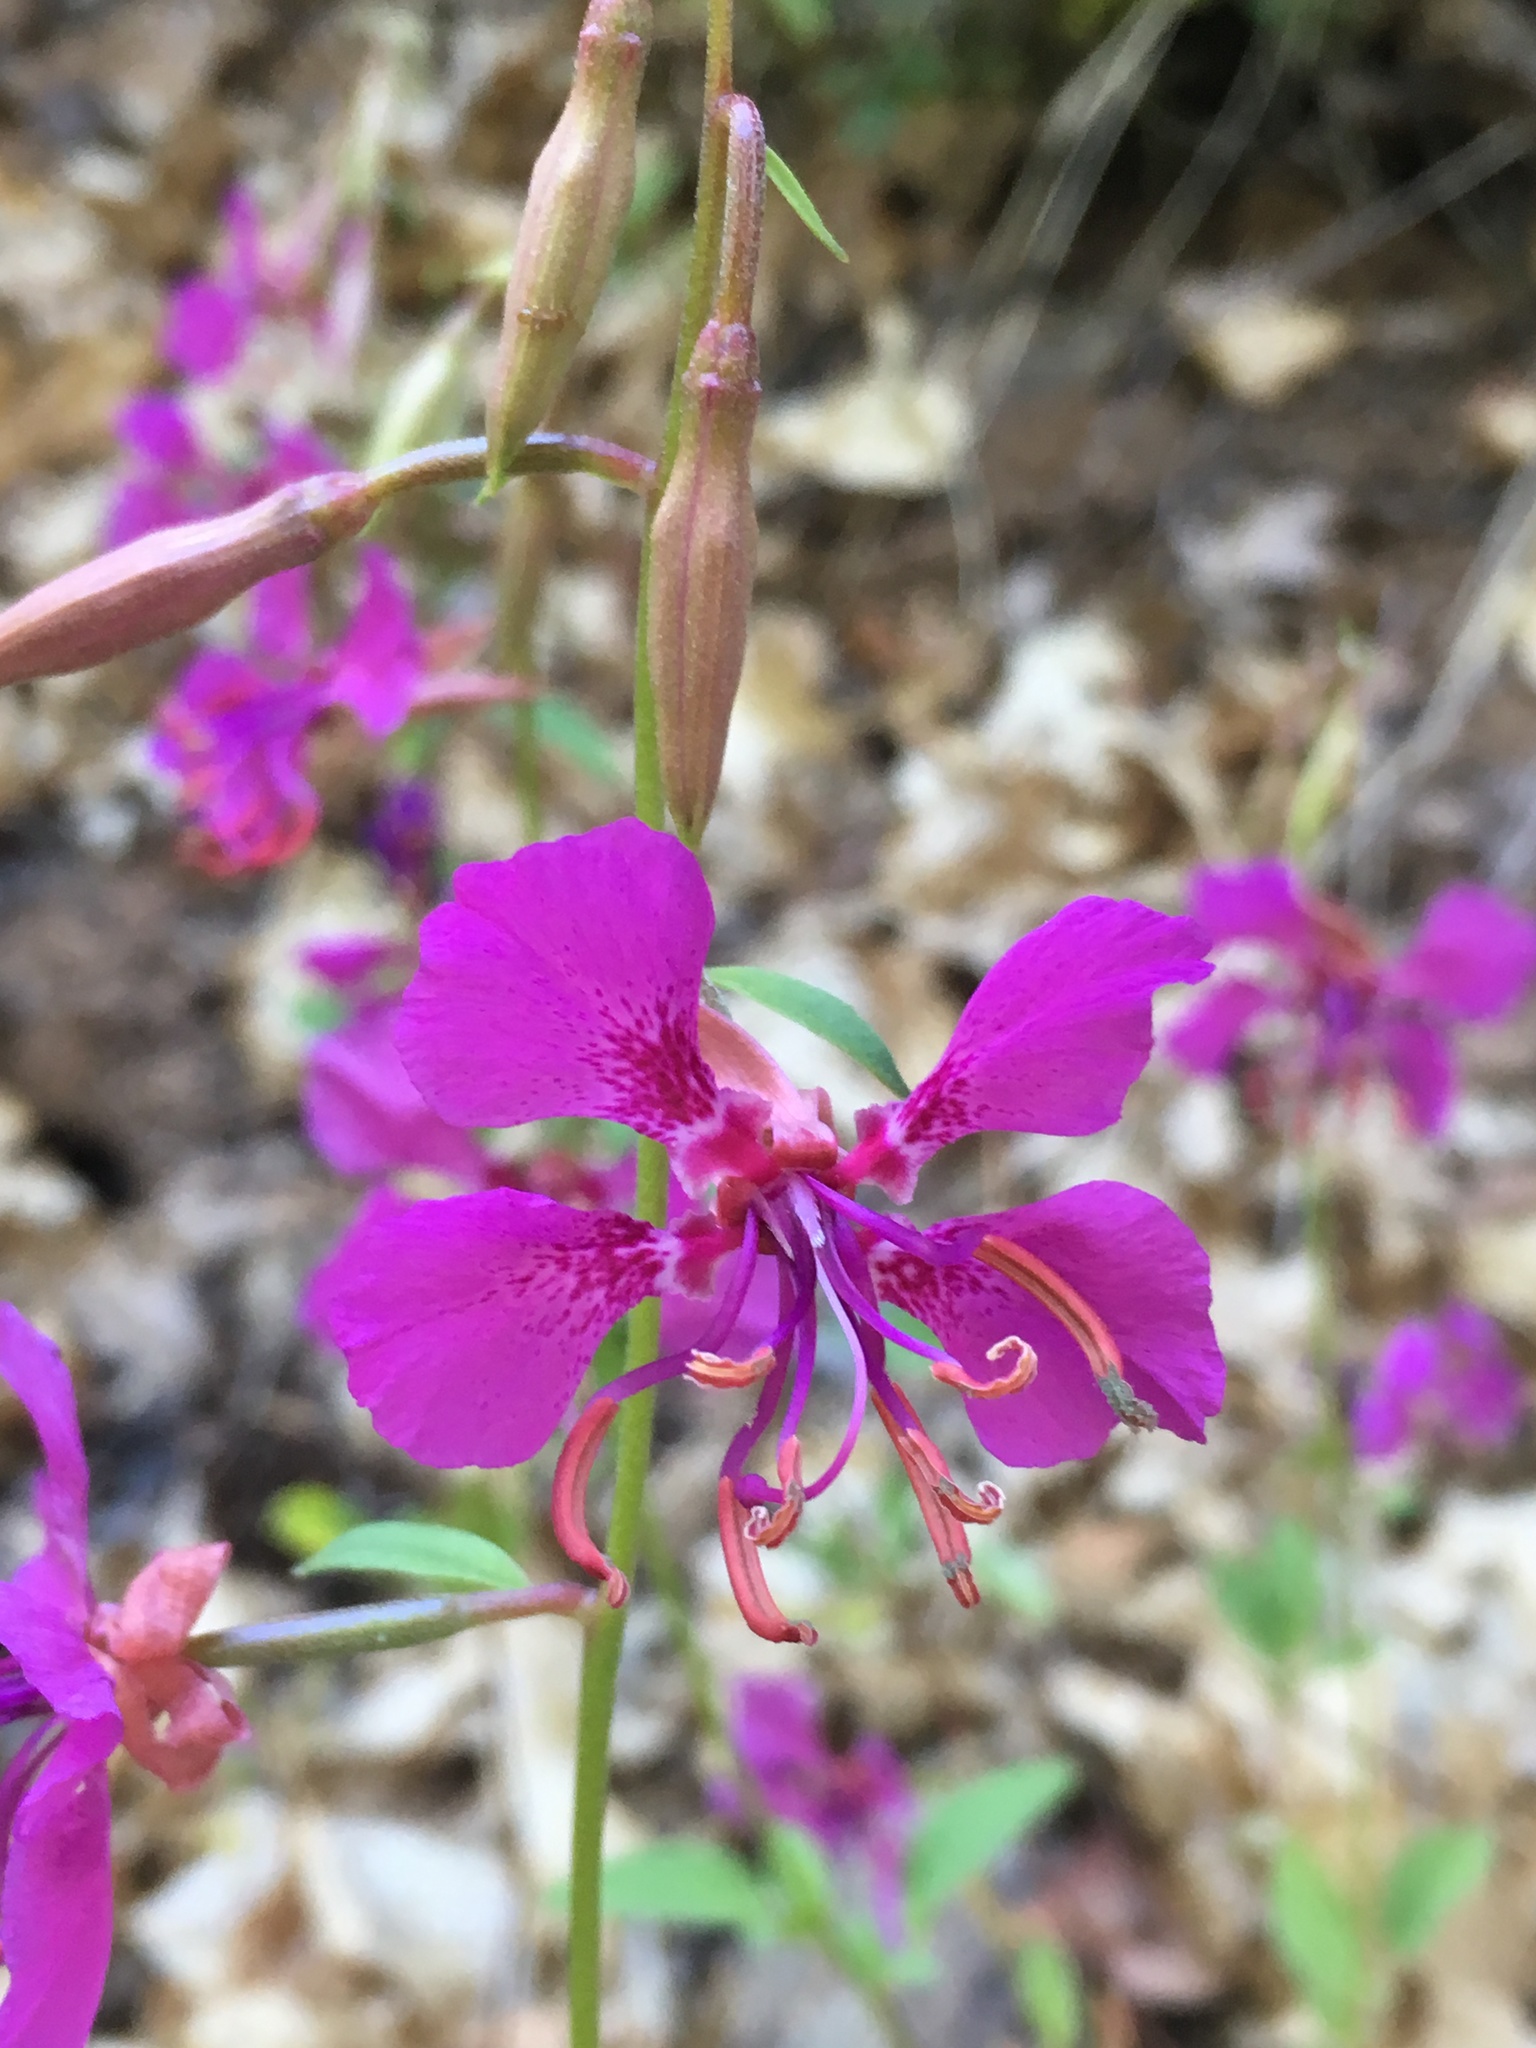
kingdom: Plantae
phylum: Tracheophyta
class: Magnoliopsida
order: Myrtales
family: Onagraceae
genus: Clarkia
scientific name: Clarkia mildrediae
